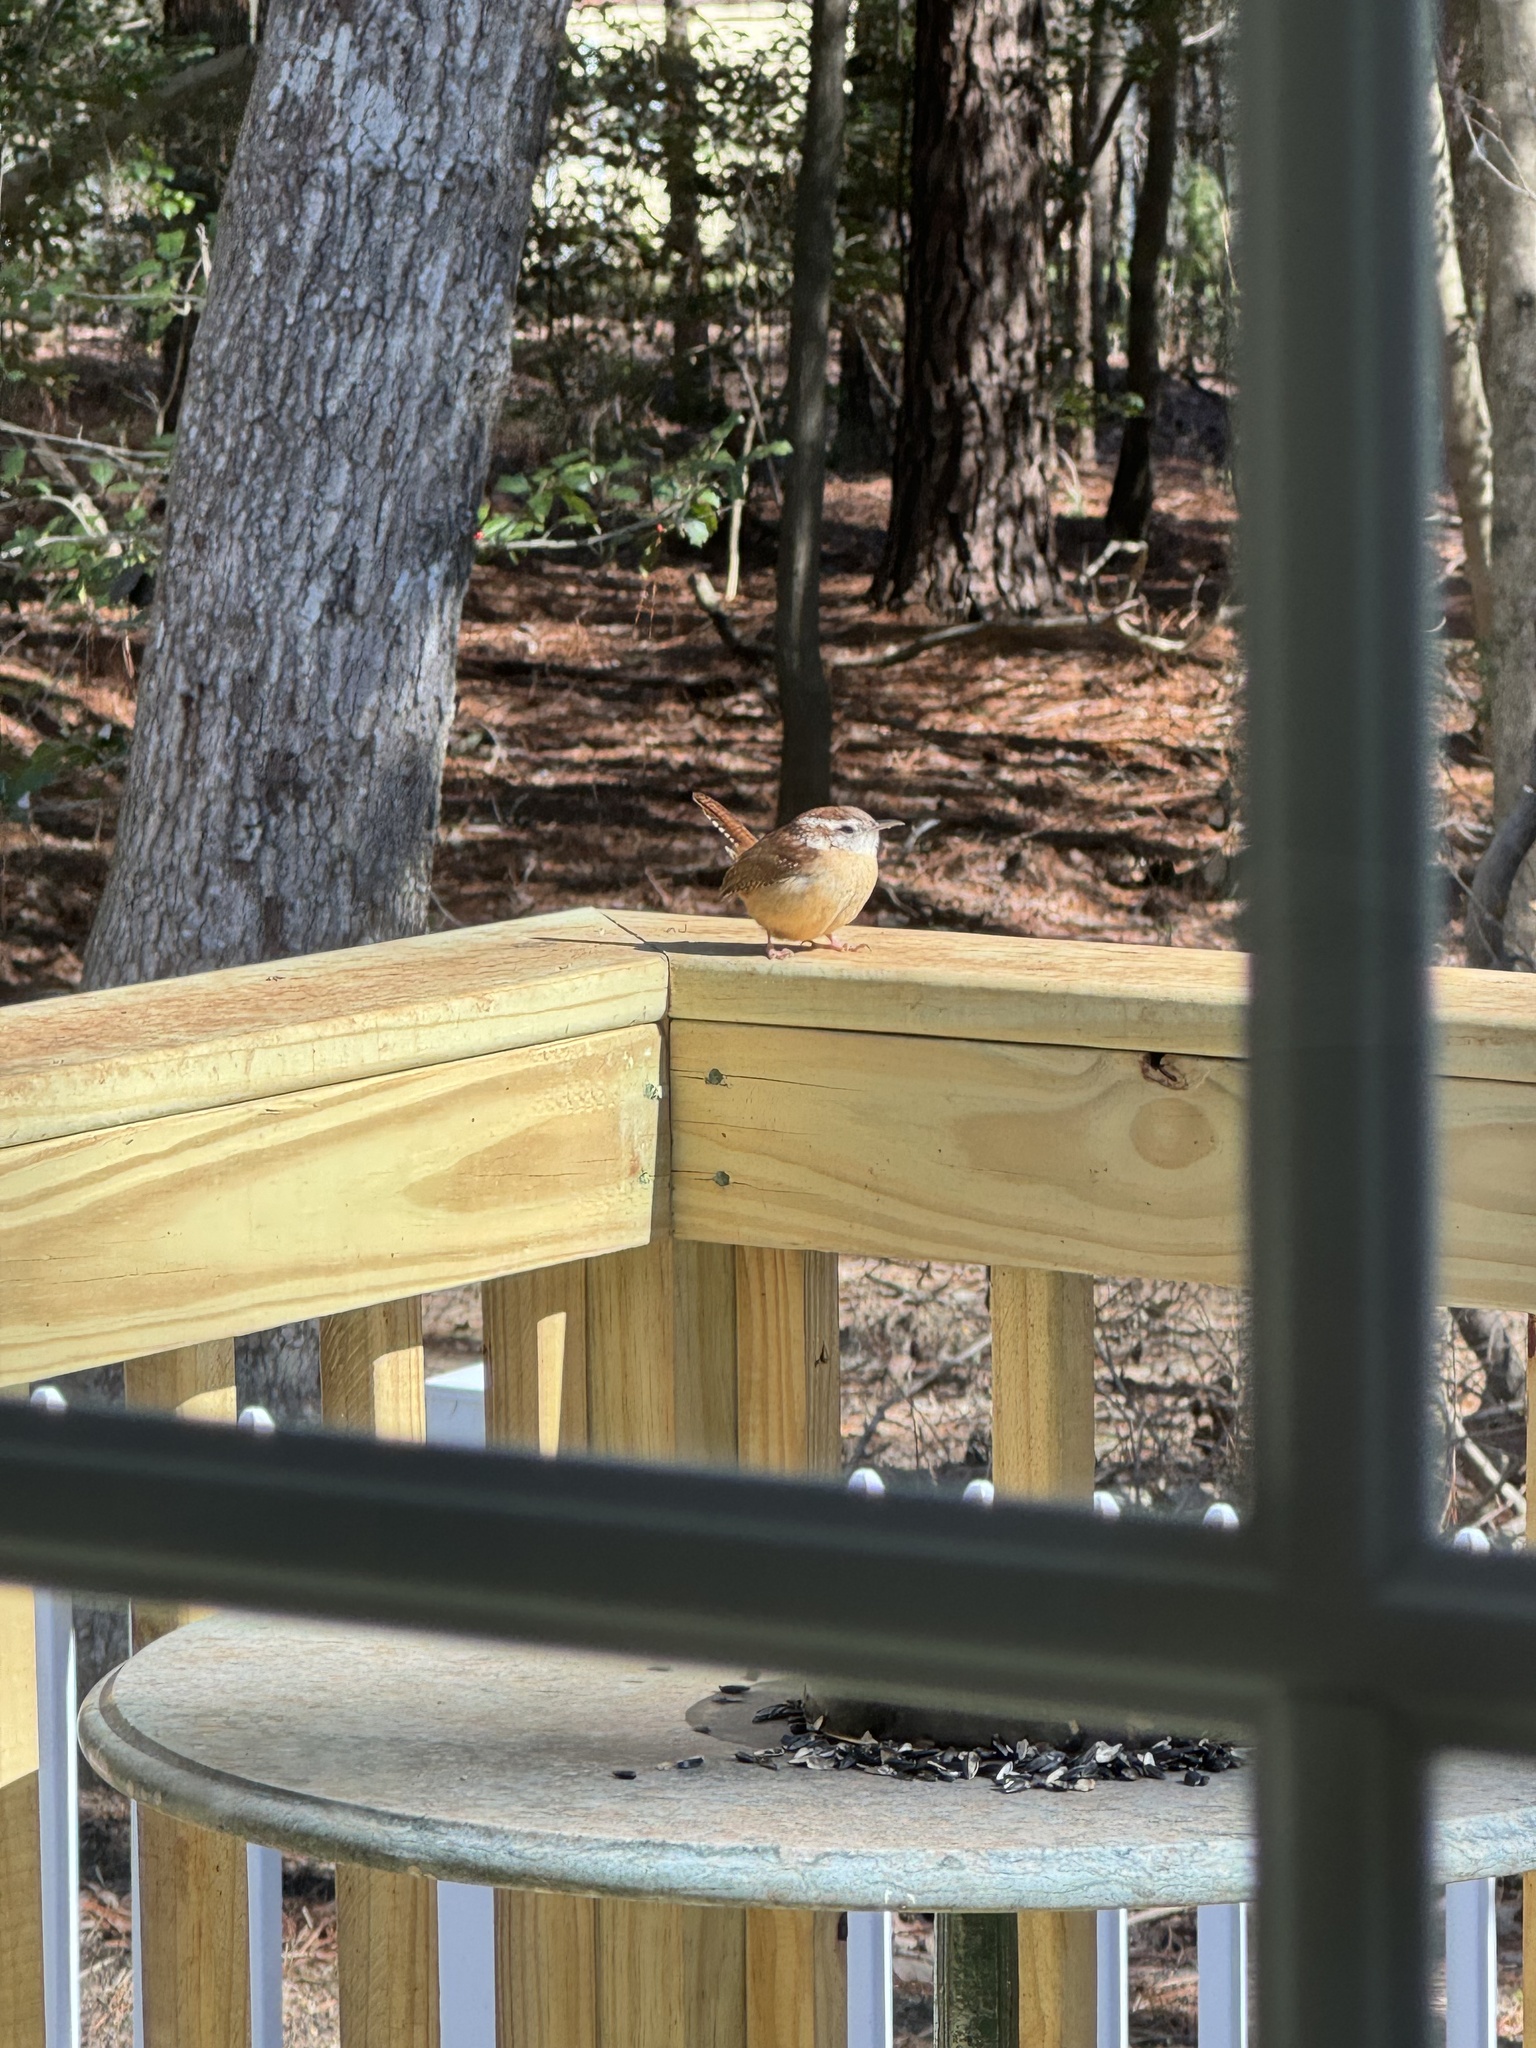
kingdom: Animalia
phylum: Chordata
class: Aves
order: Passeriformes
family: Troglodytidae
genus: Thryothorus
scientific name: Thryothorus ludovicianus
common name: Carolina wren
